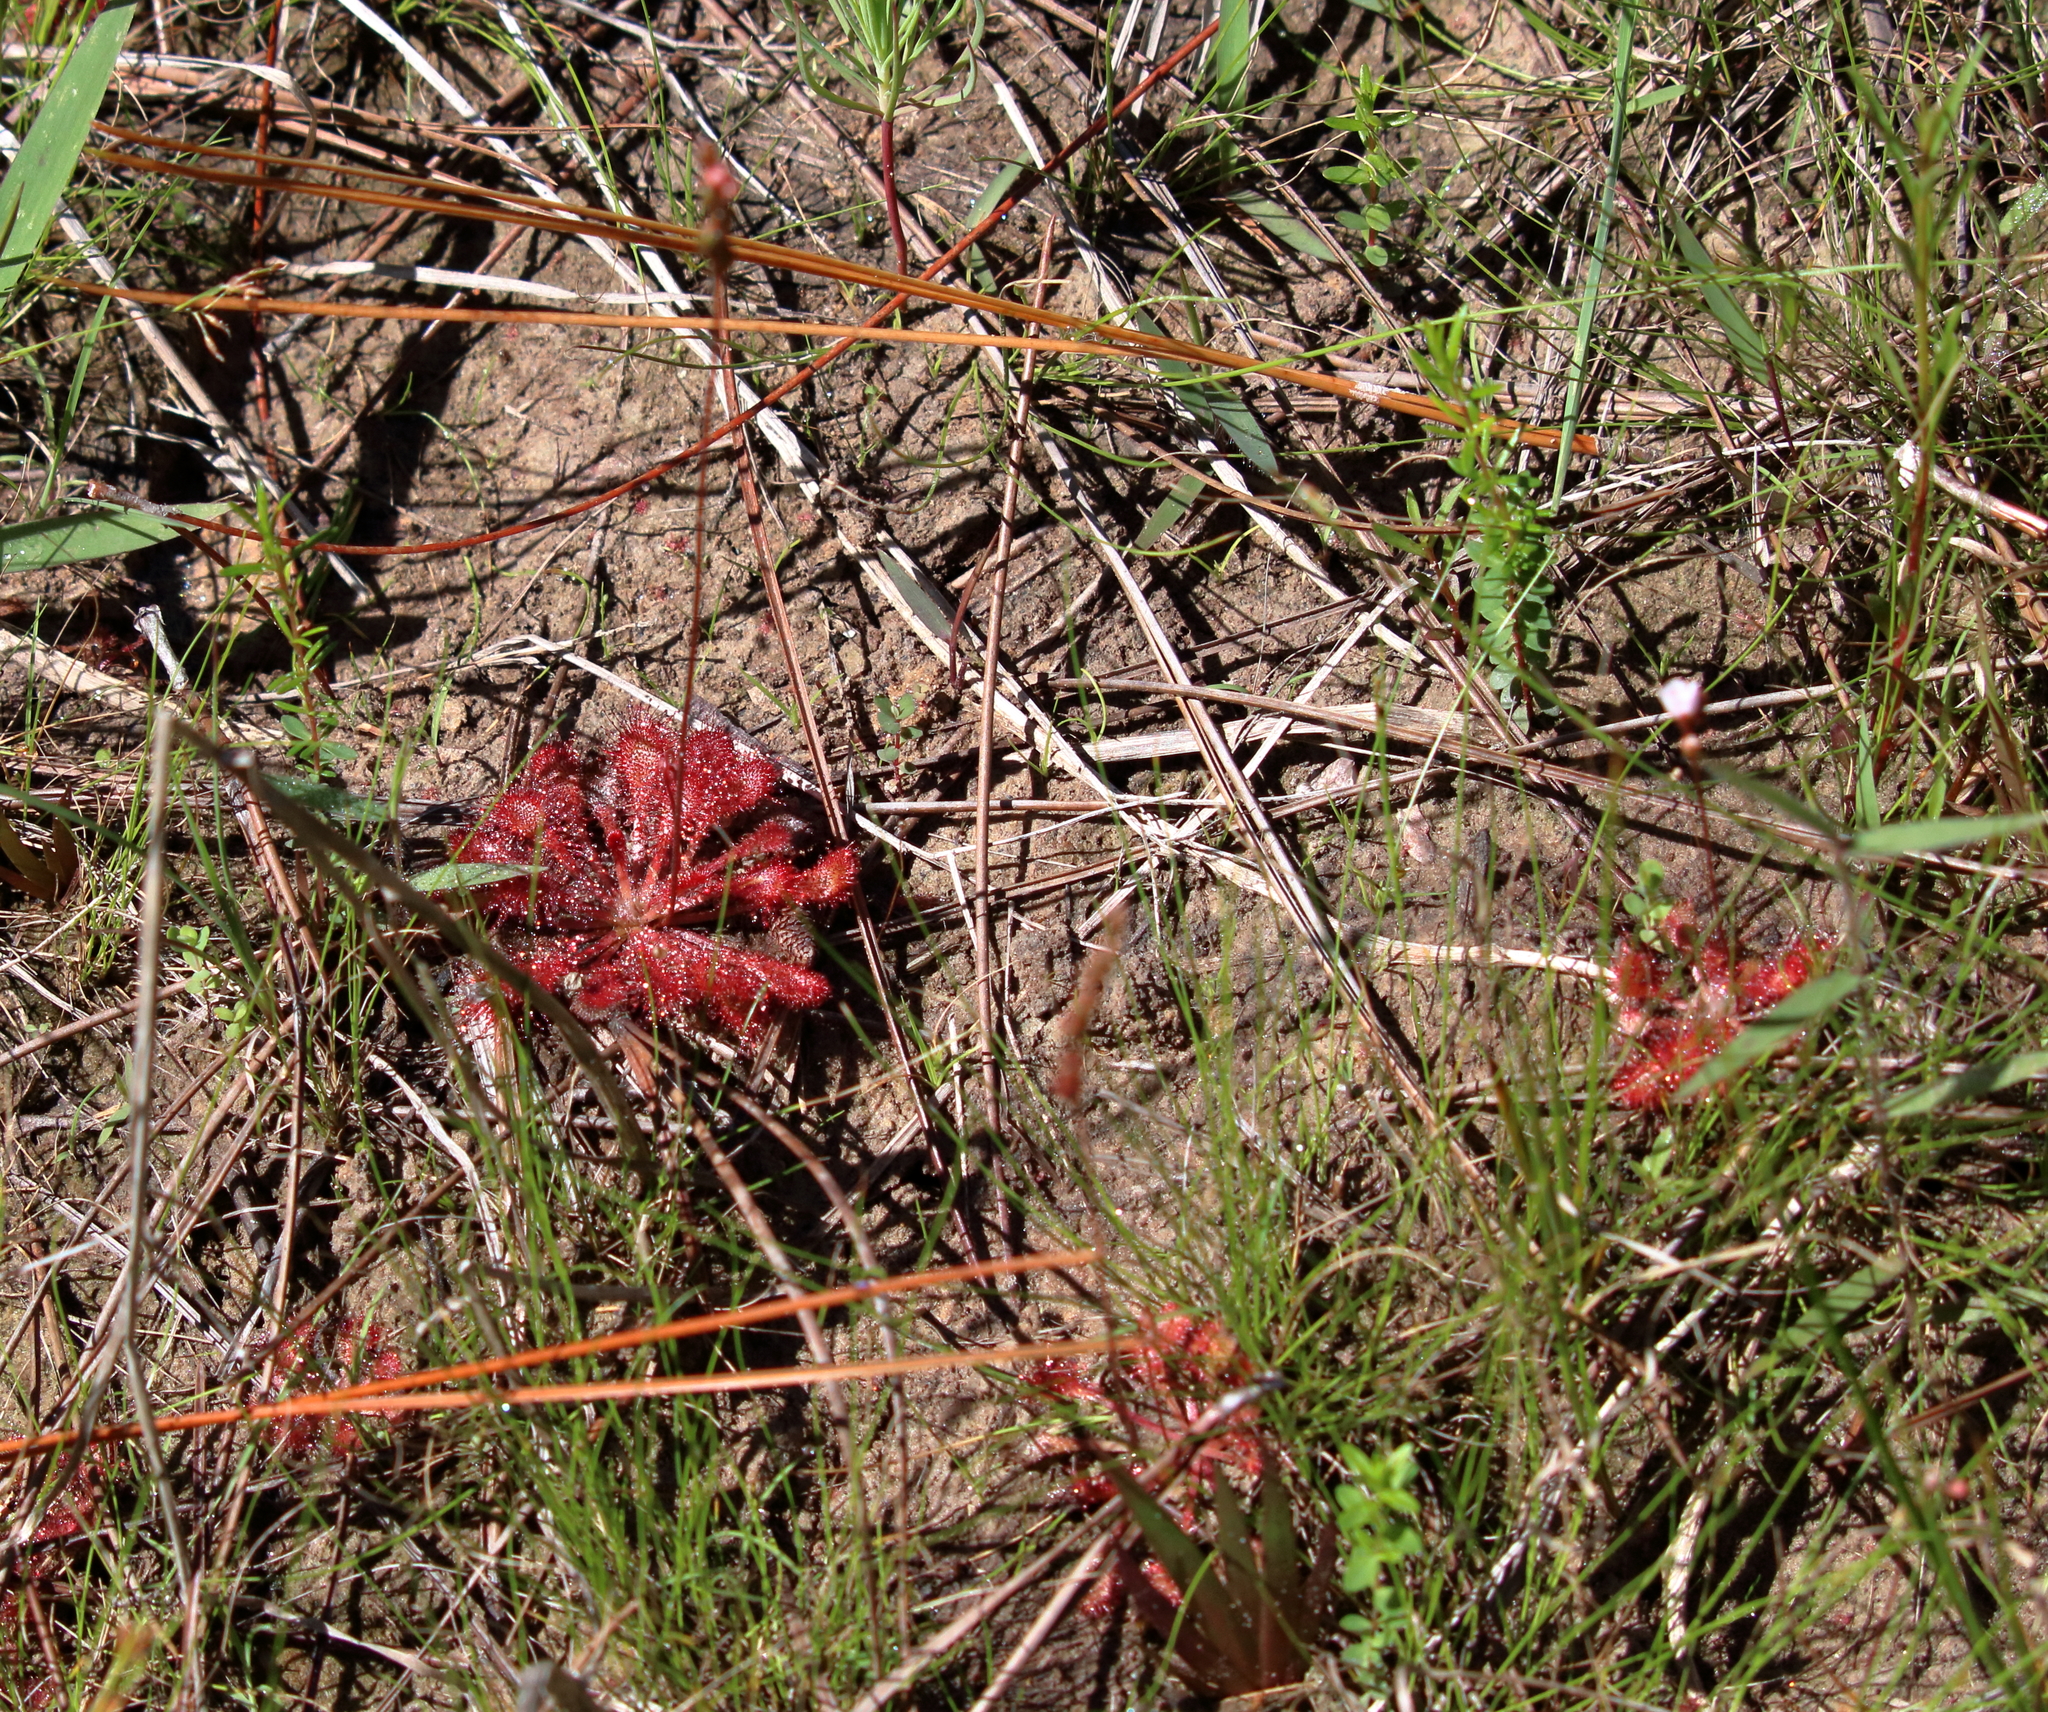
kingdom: Plantae
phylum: Tracheophyta
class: Magnoliopsida
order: Caryophyllales
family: Droseraceae
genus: Drosera
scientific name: Drosera capillaris
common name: Pink sundew
